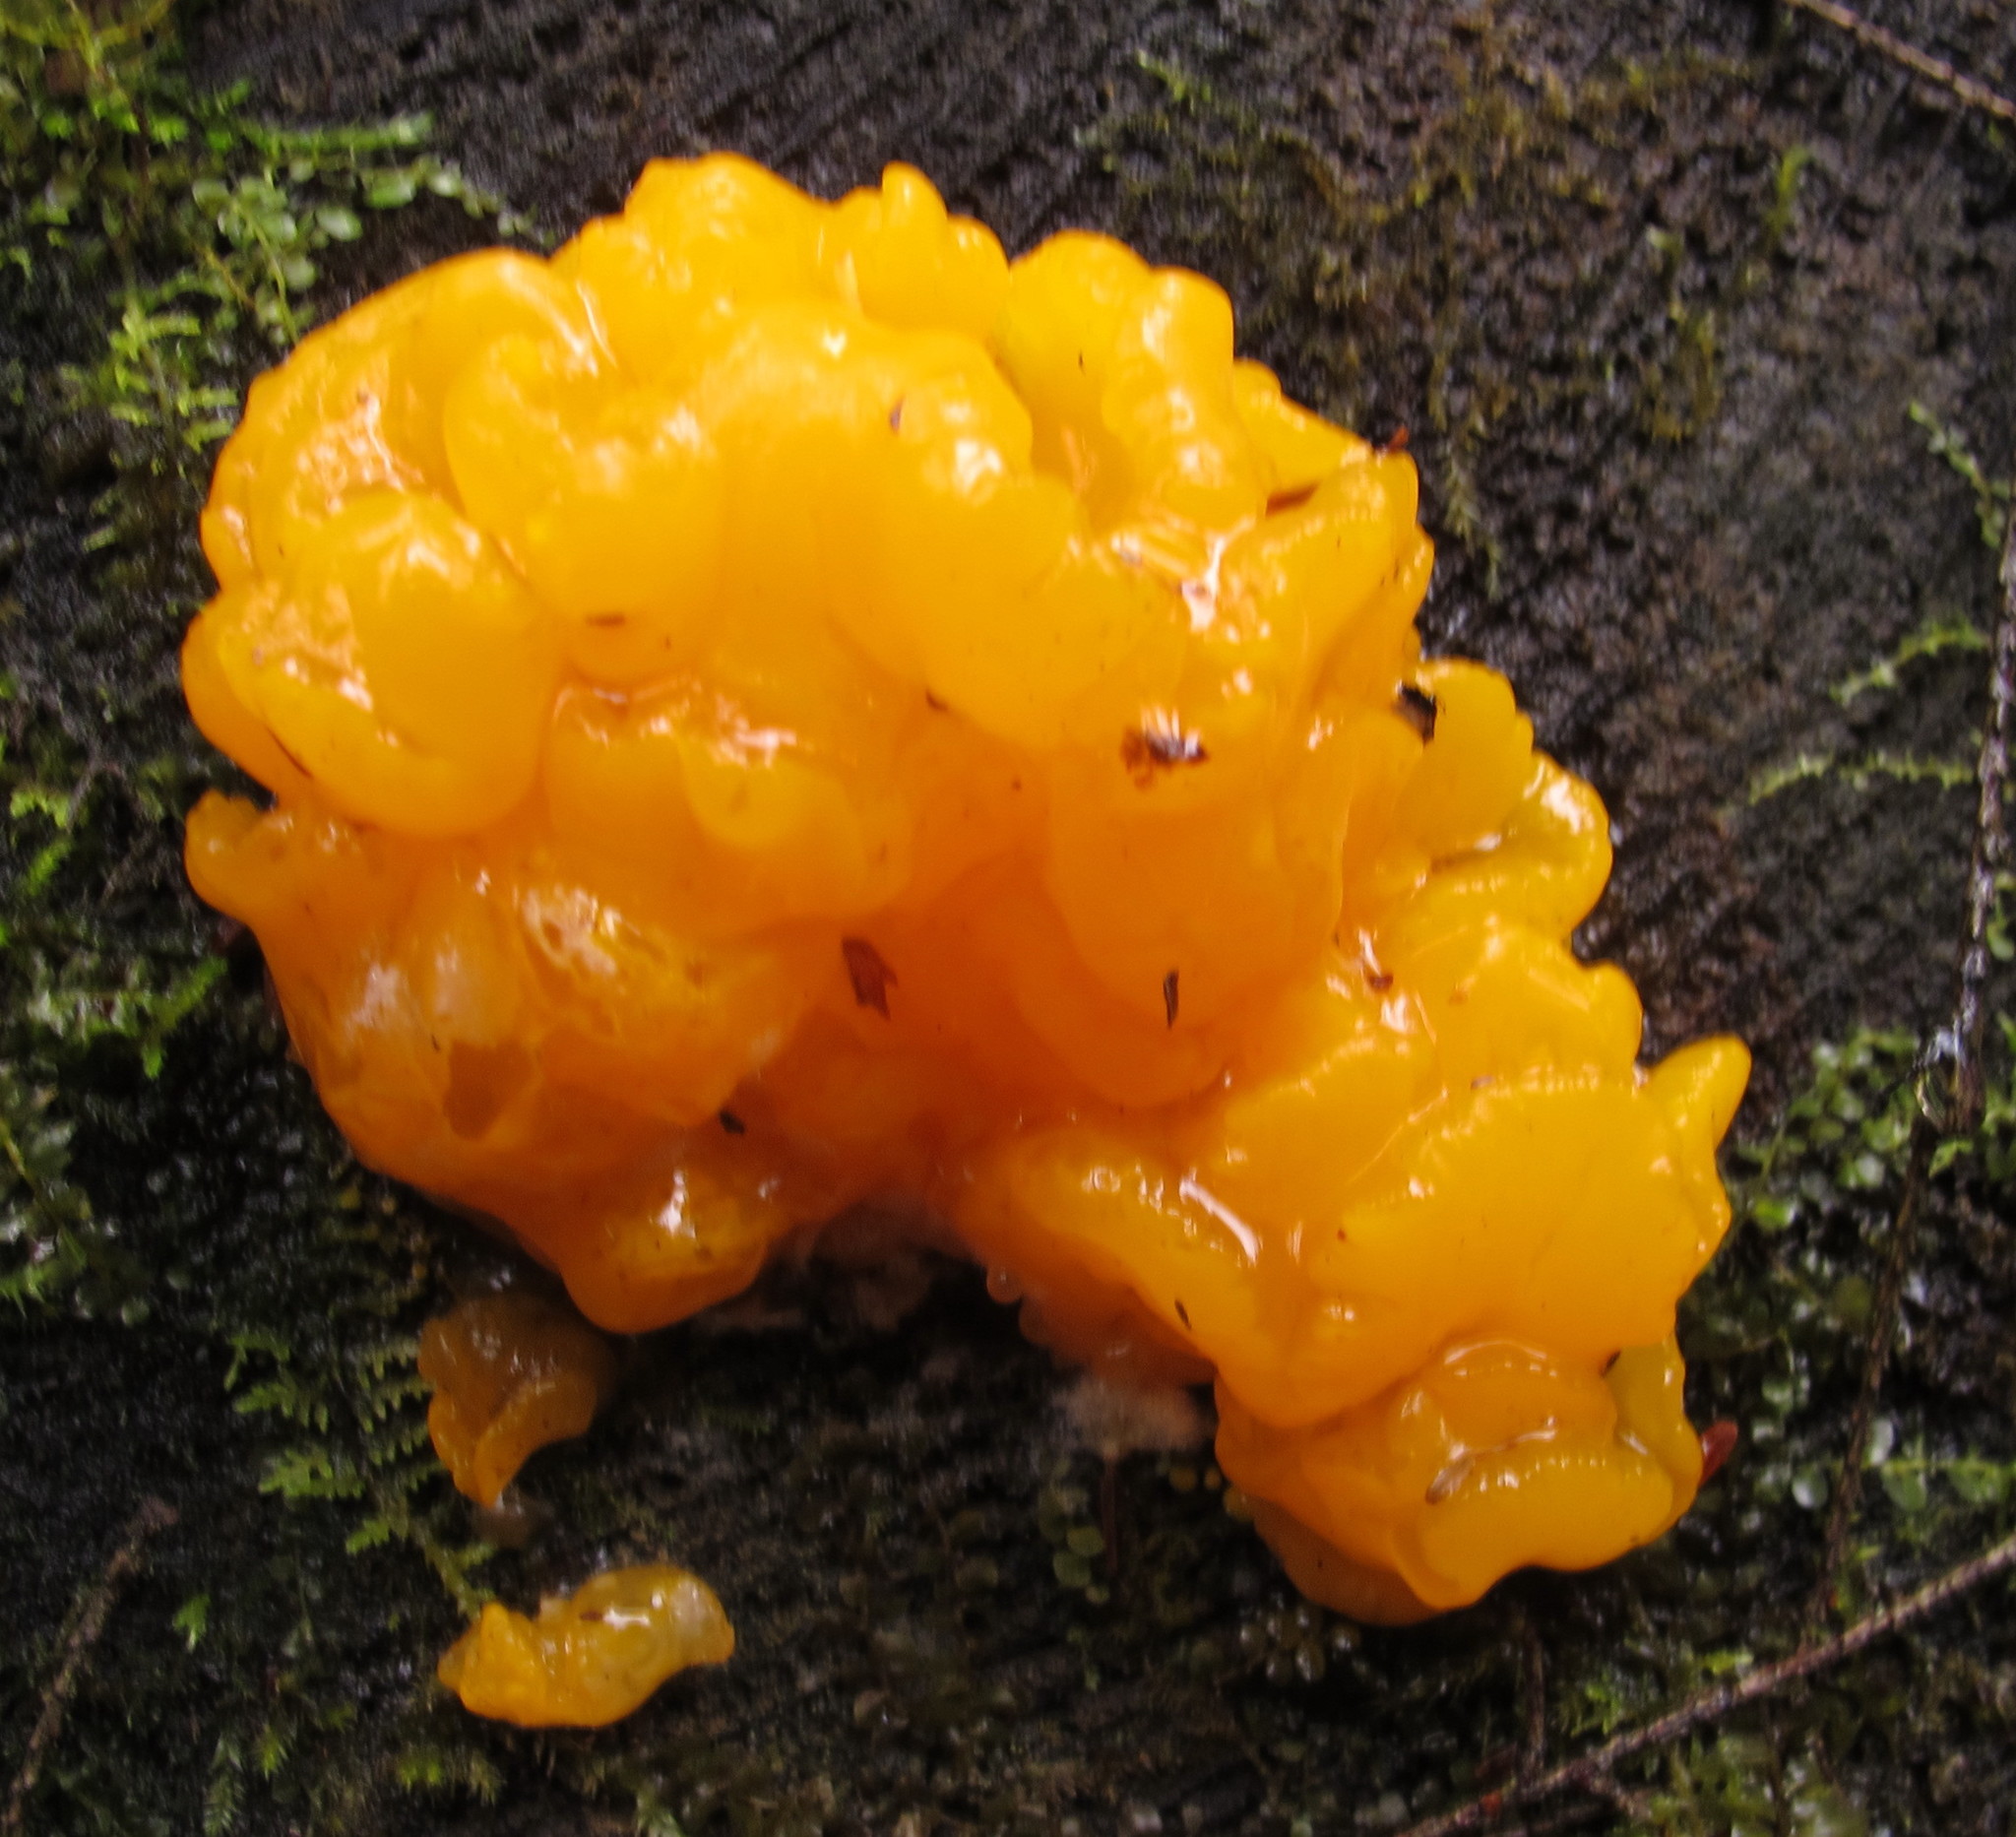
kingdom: Fungi
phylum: Basidiomycota
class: Dacrymycetes
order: Dacrymycetales
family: Dacrymycetaceae
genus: Dacrymyces
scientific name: Dacrymyces chrysospermus
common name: Orange jelly spot
